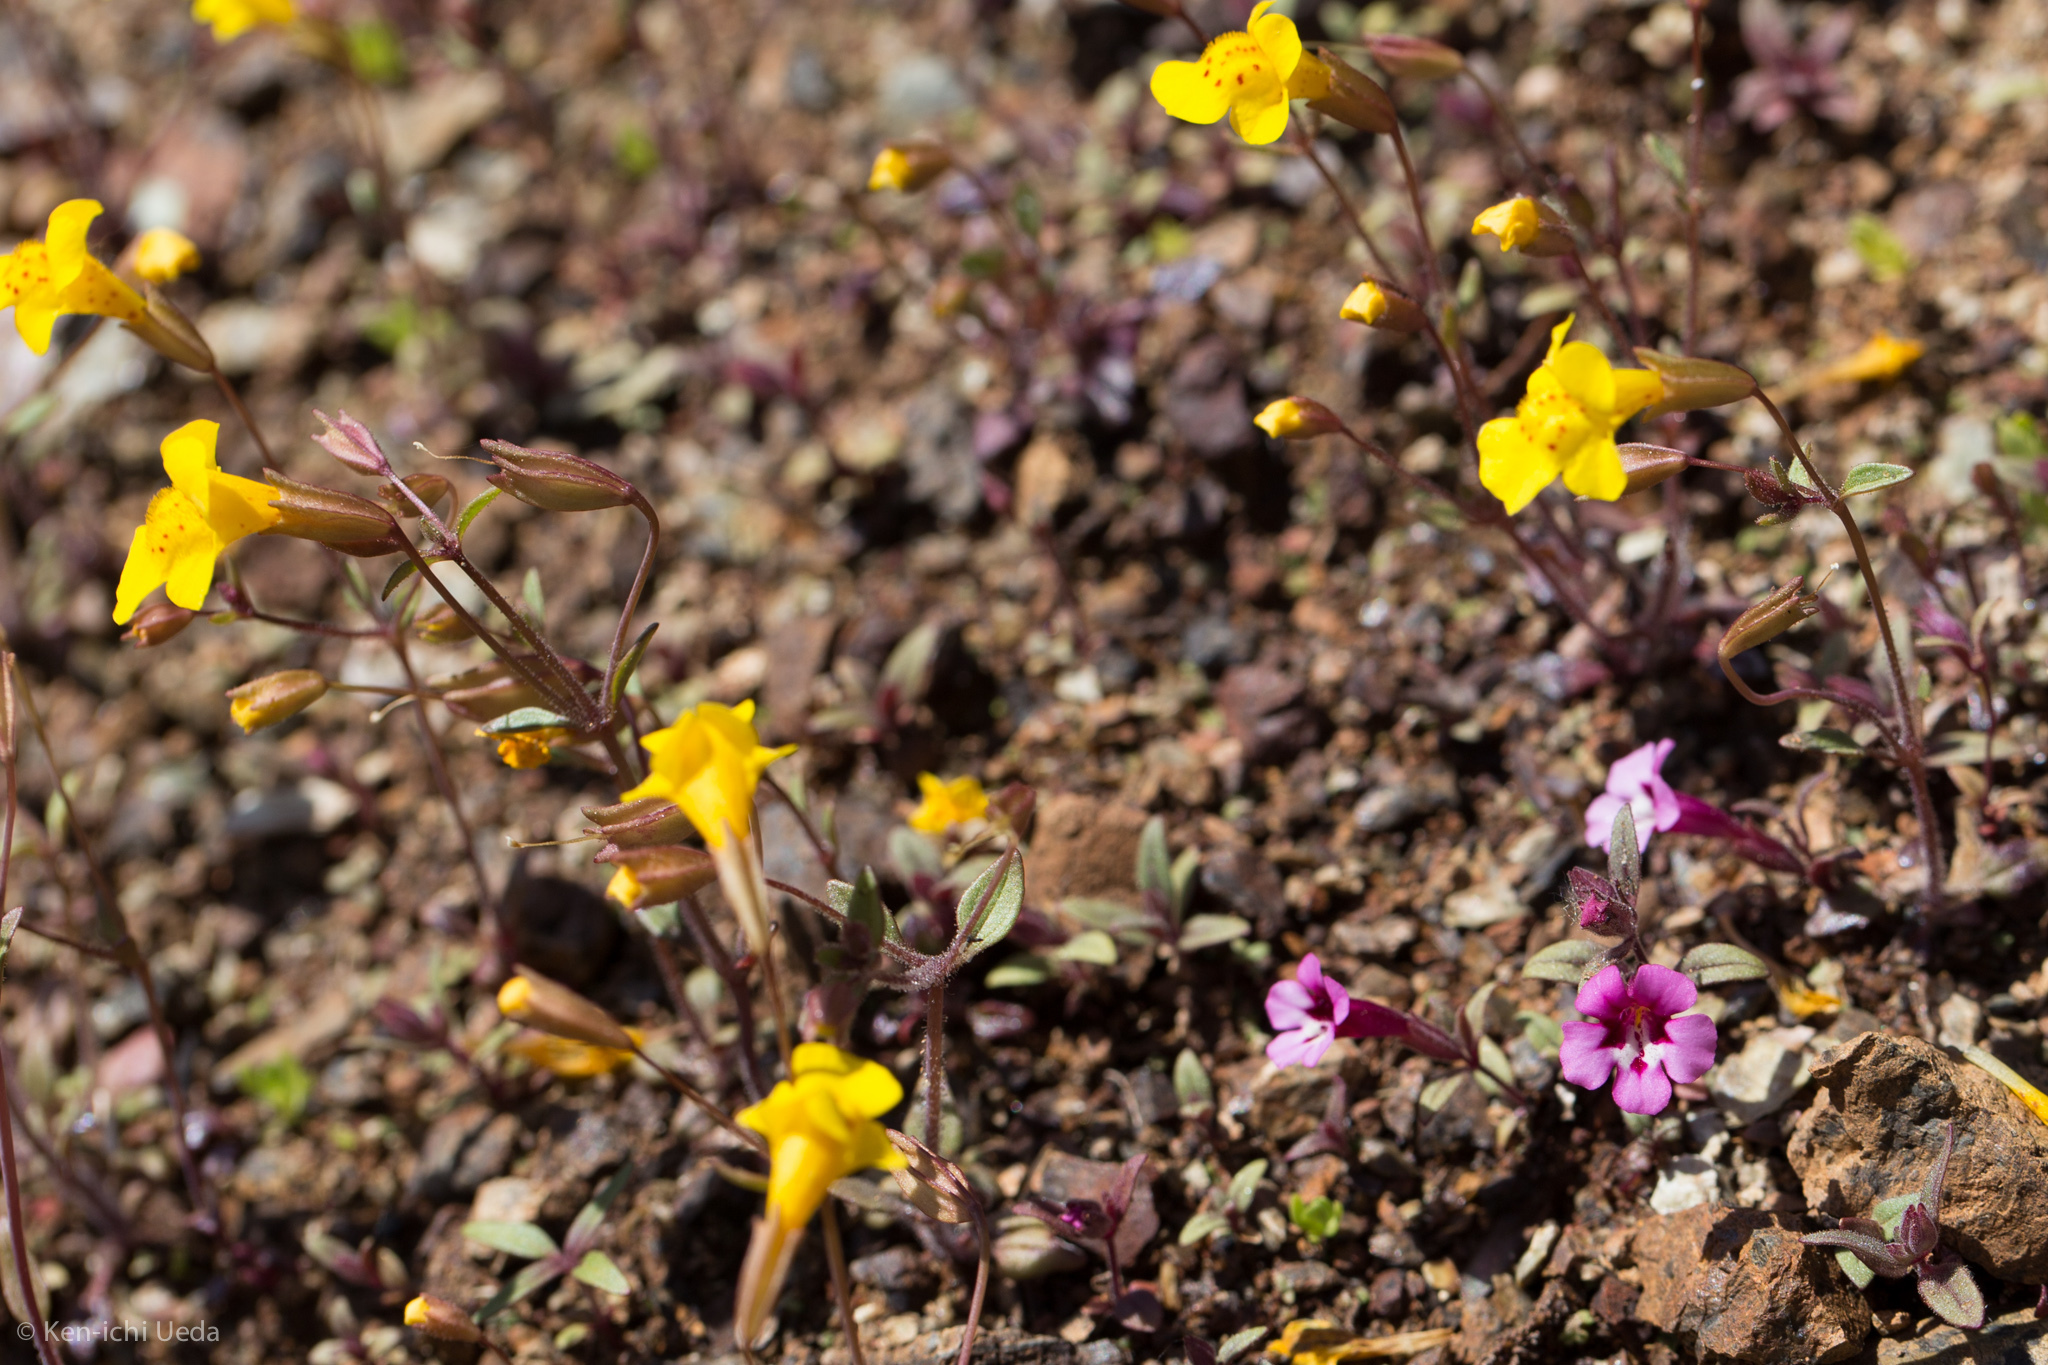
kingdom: Plantae
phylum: Tracheophyta
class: Magnoliopsida
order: Lamiales
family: Phrymaceae
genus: Erythranthe
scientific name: Erythranthe nudata
